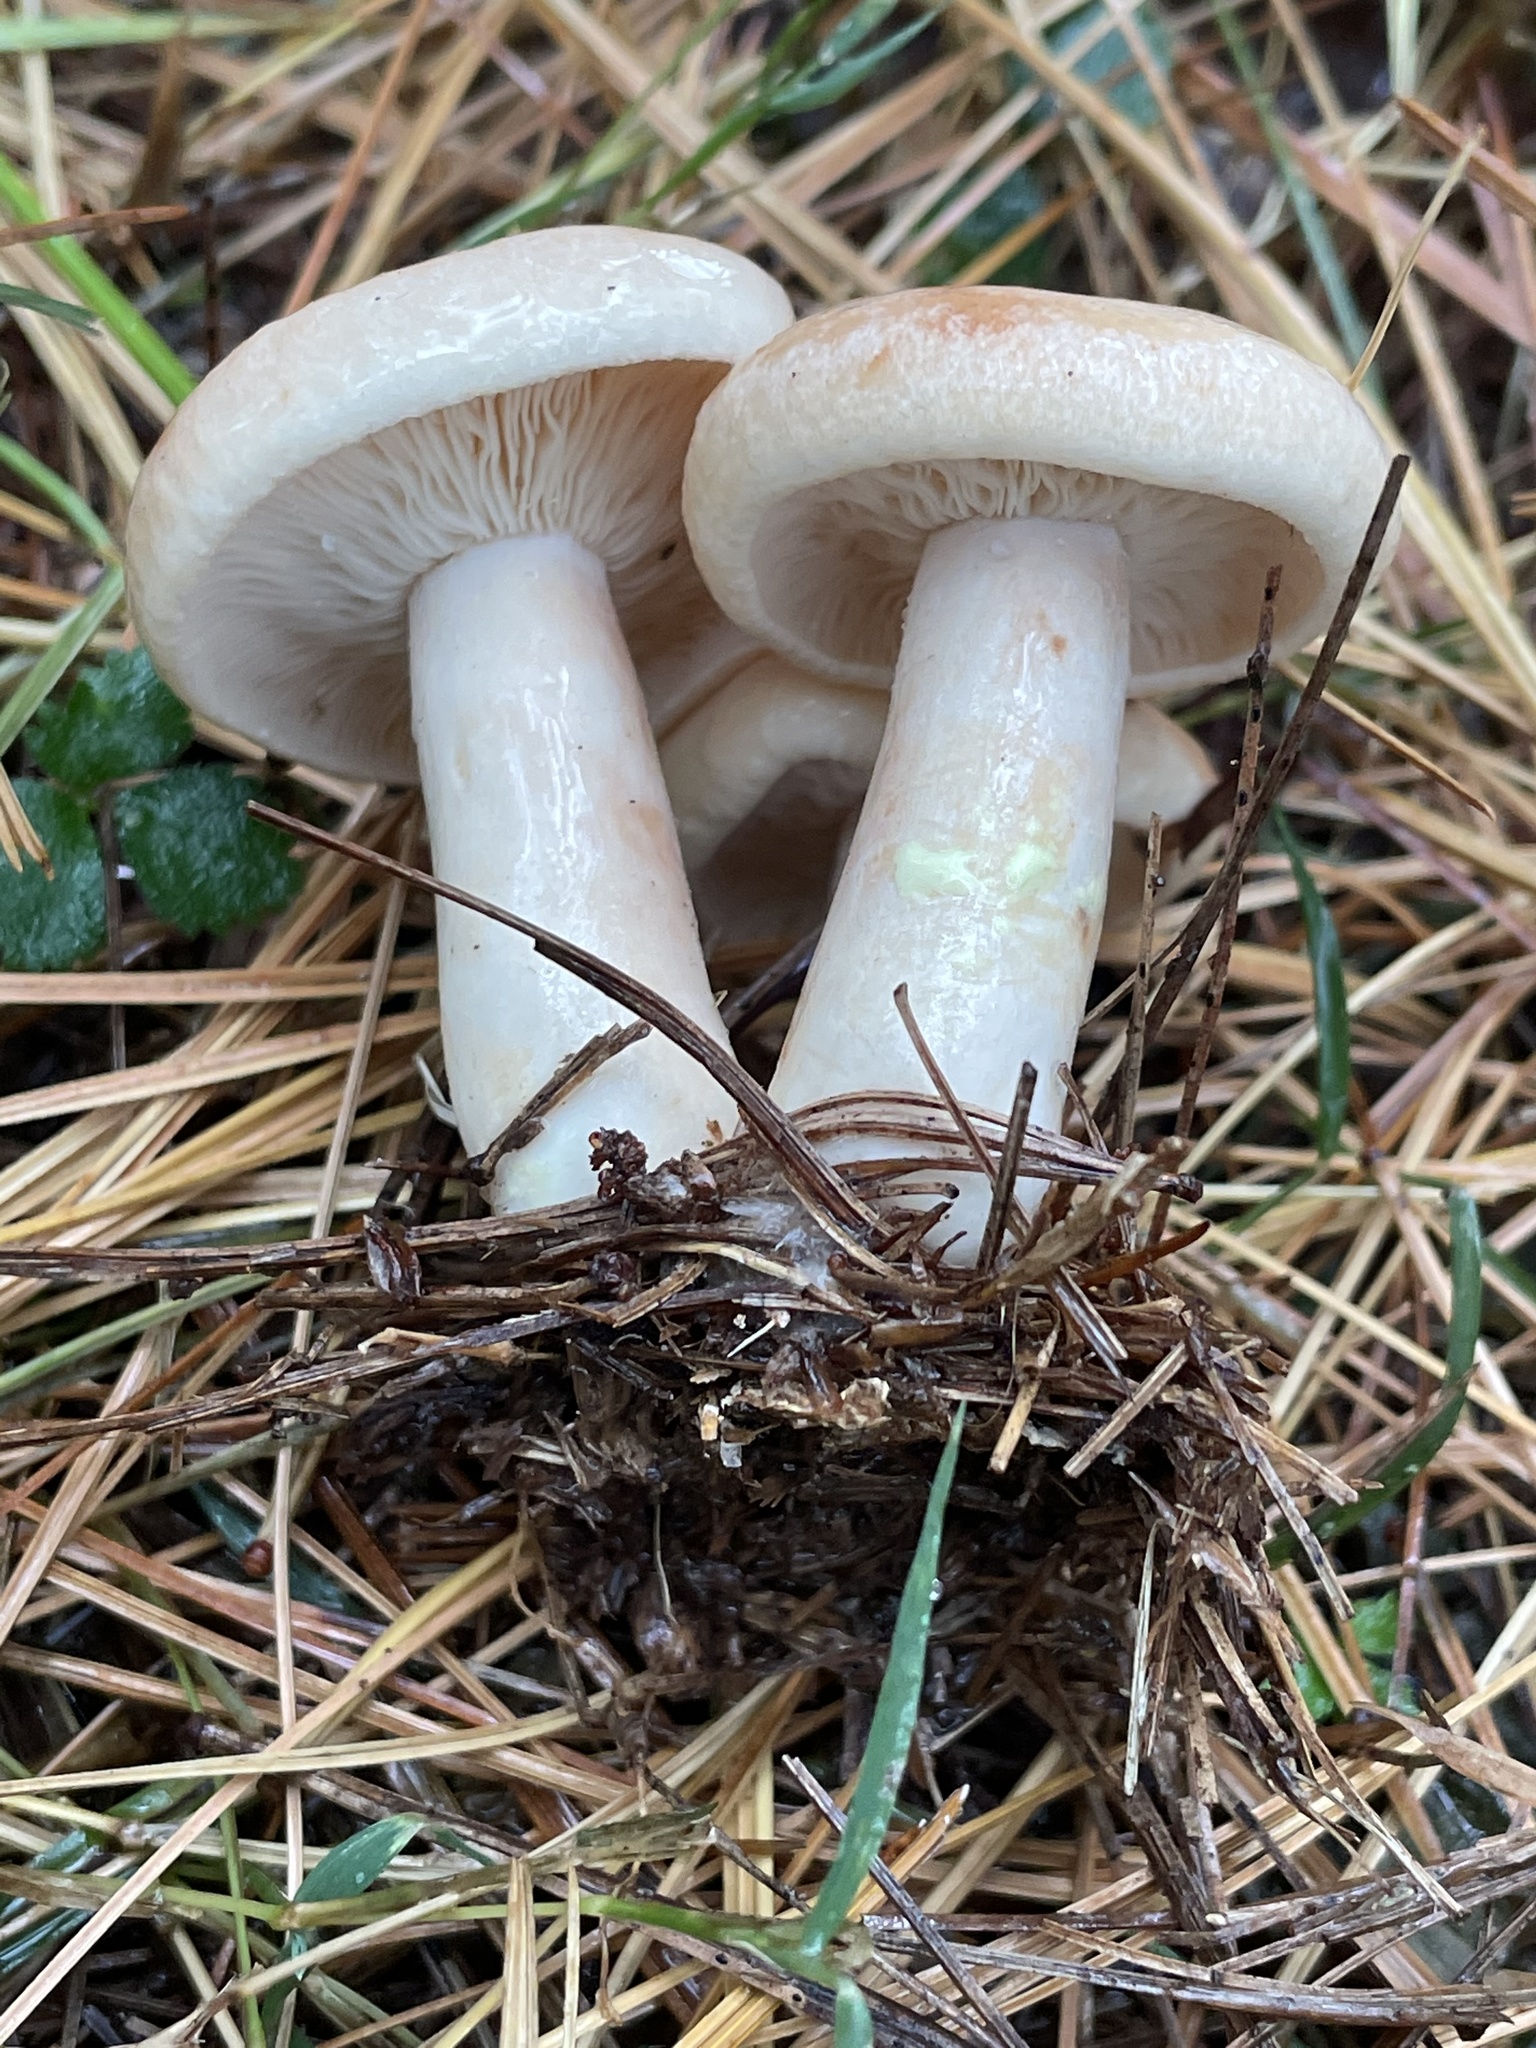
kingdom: Fungi
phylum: Basidiomycota
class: Agaricomycetes
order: Russulales
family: Russulaceae
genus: Lactarius
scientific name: Lactarius vinaceorufescens
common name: Yellow-latex milkcap
